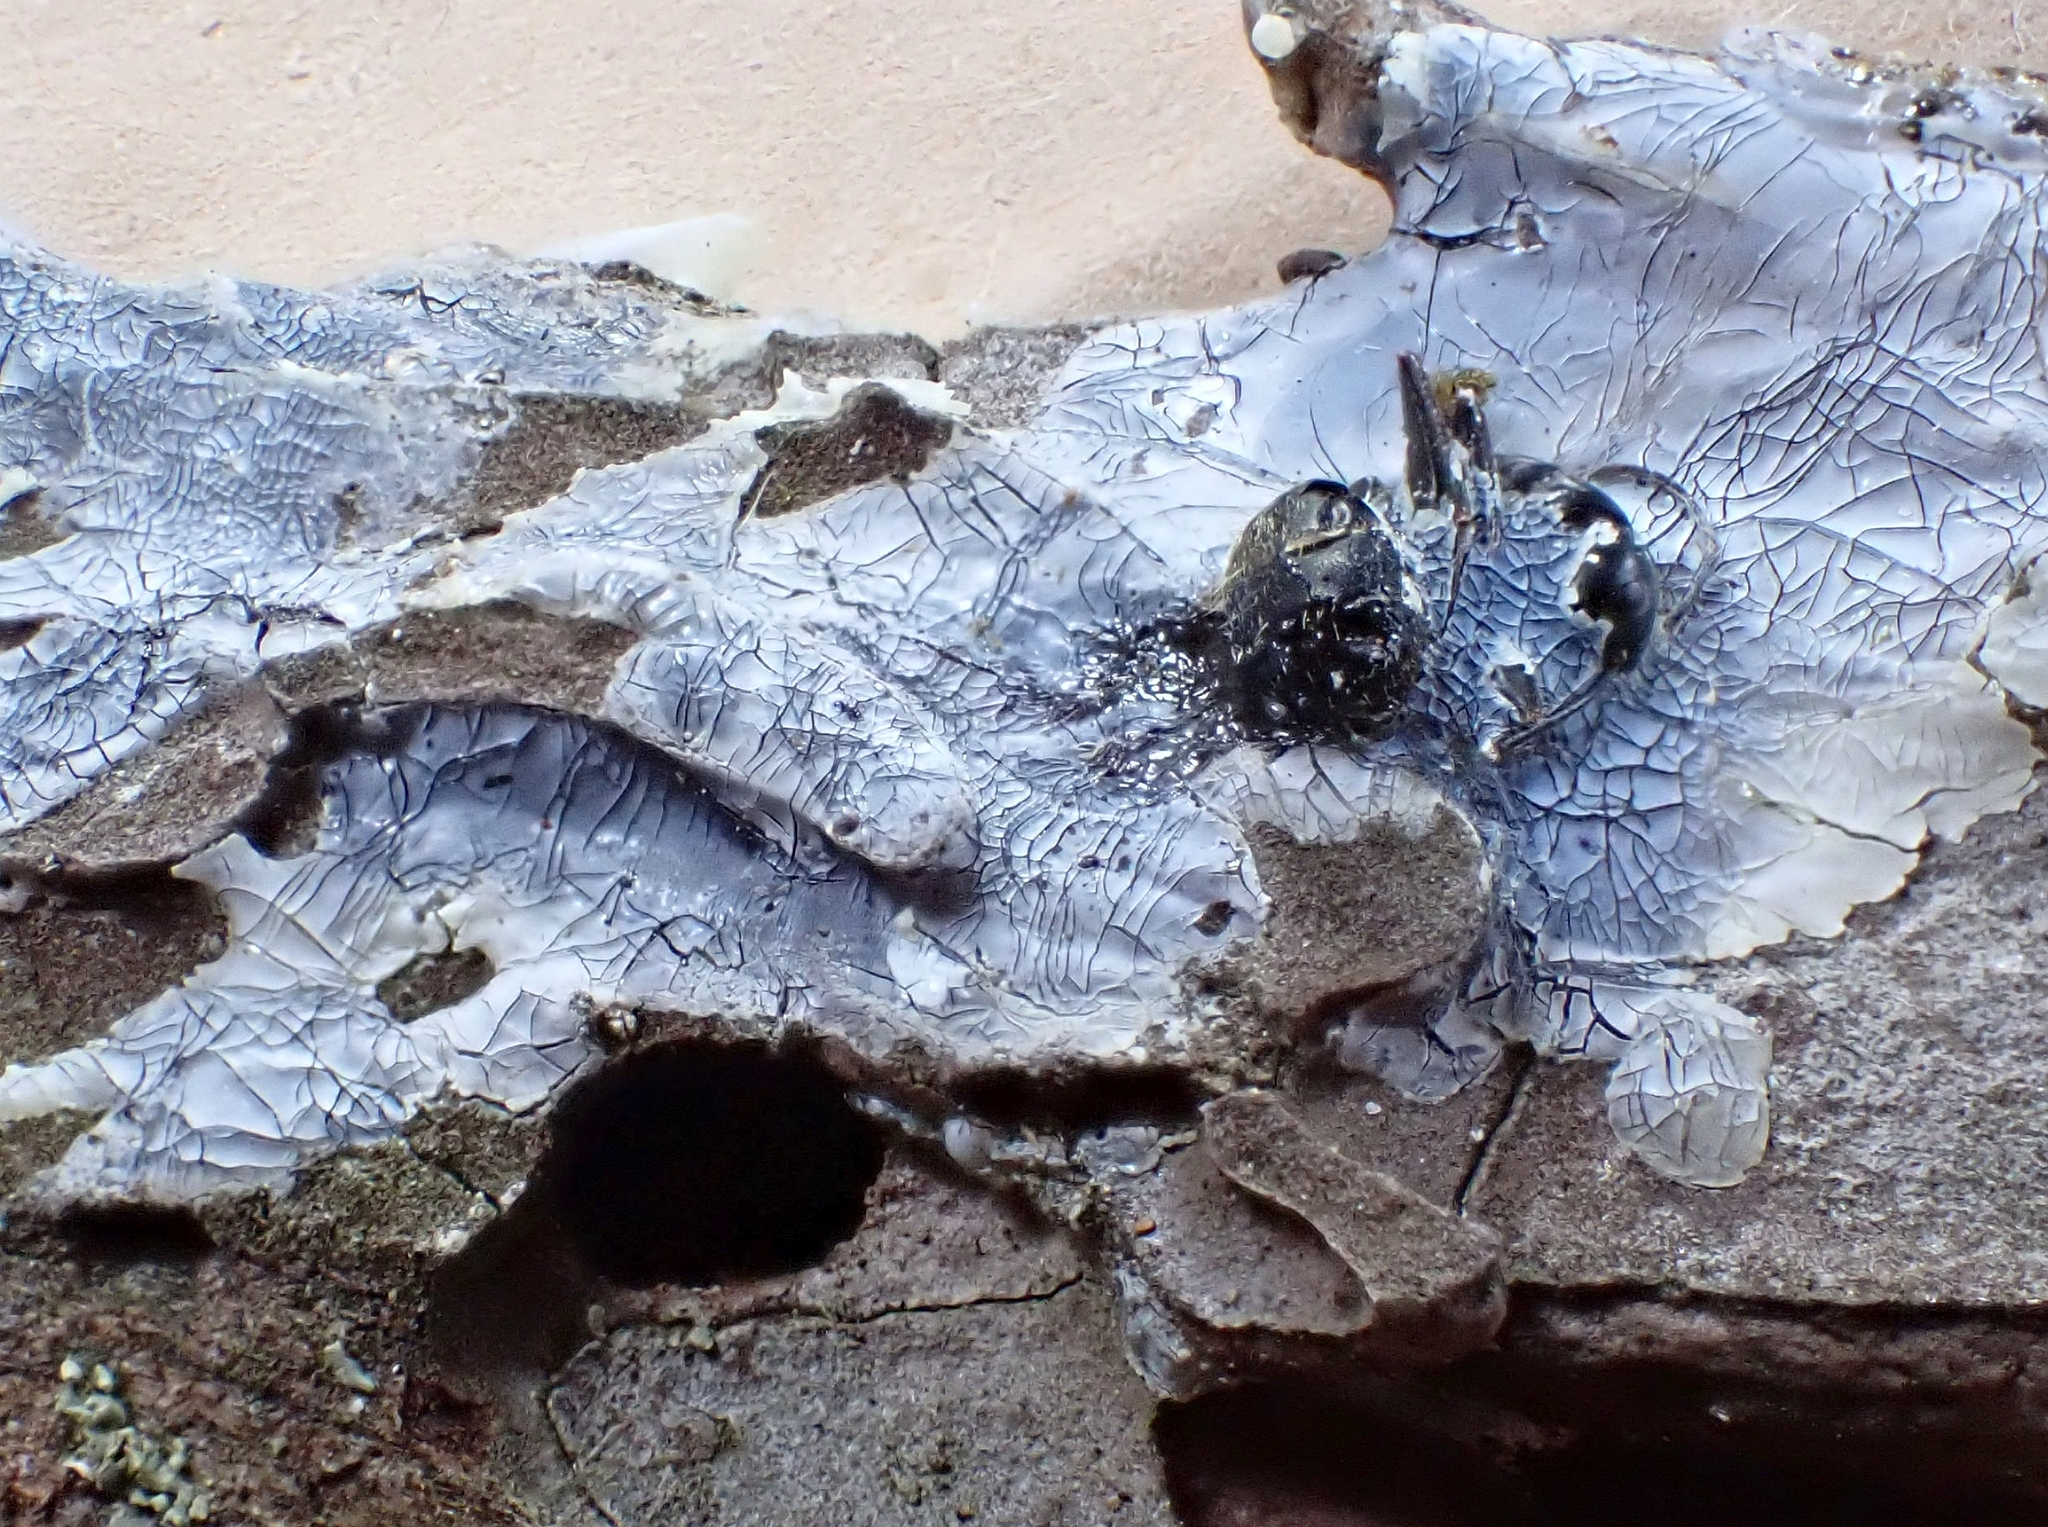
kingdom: Animalia
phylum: Arthropoda
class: Insecta
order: Hymenoptera
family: Formicidae
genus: Camponotus
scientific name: Camponotus pennsylvanicus
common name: Black carpenter ant
